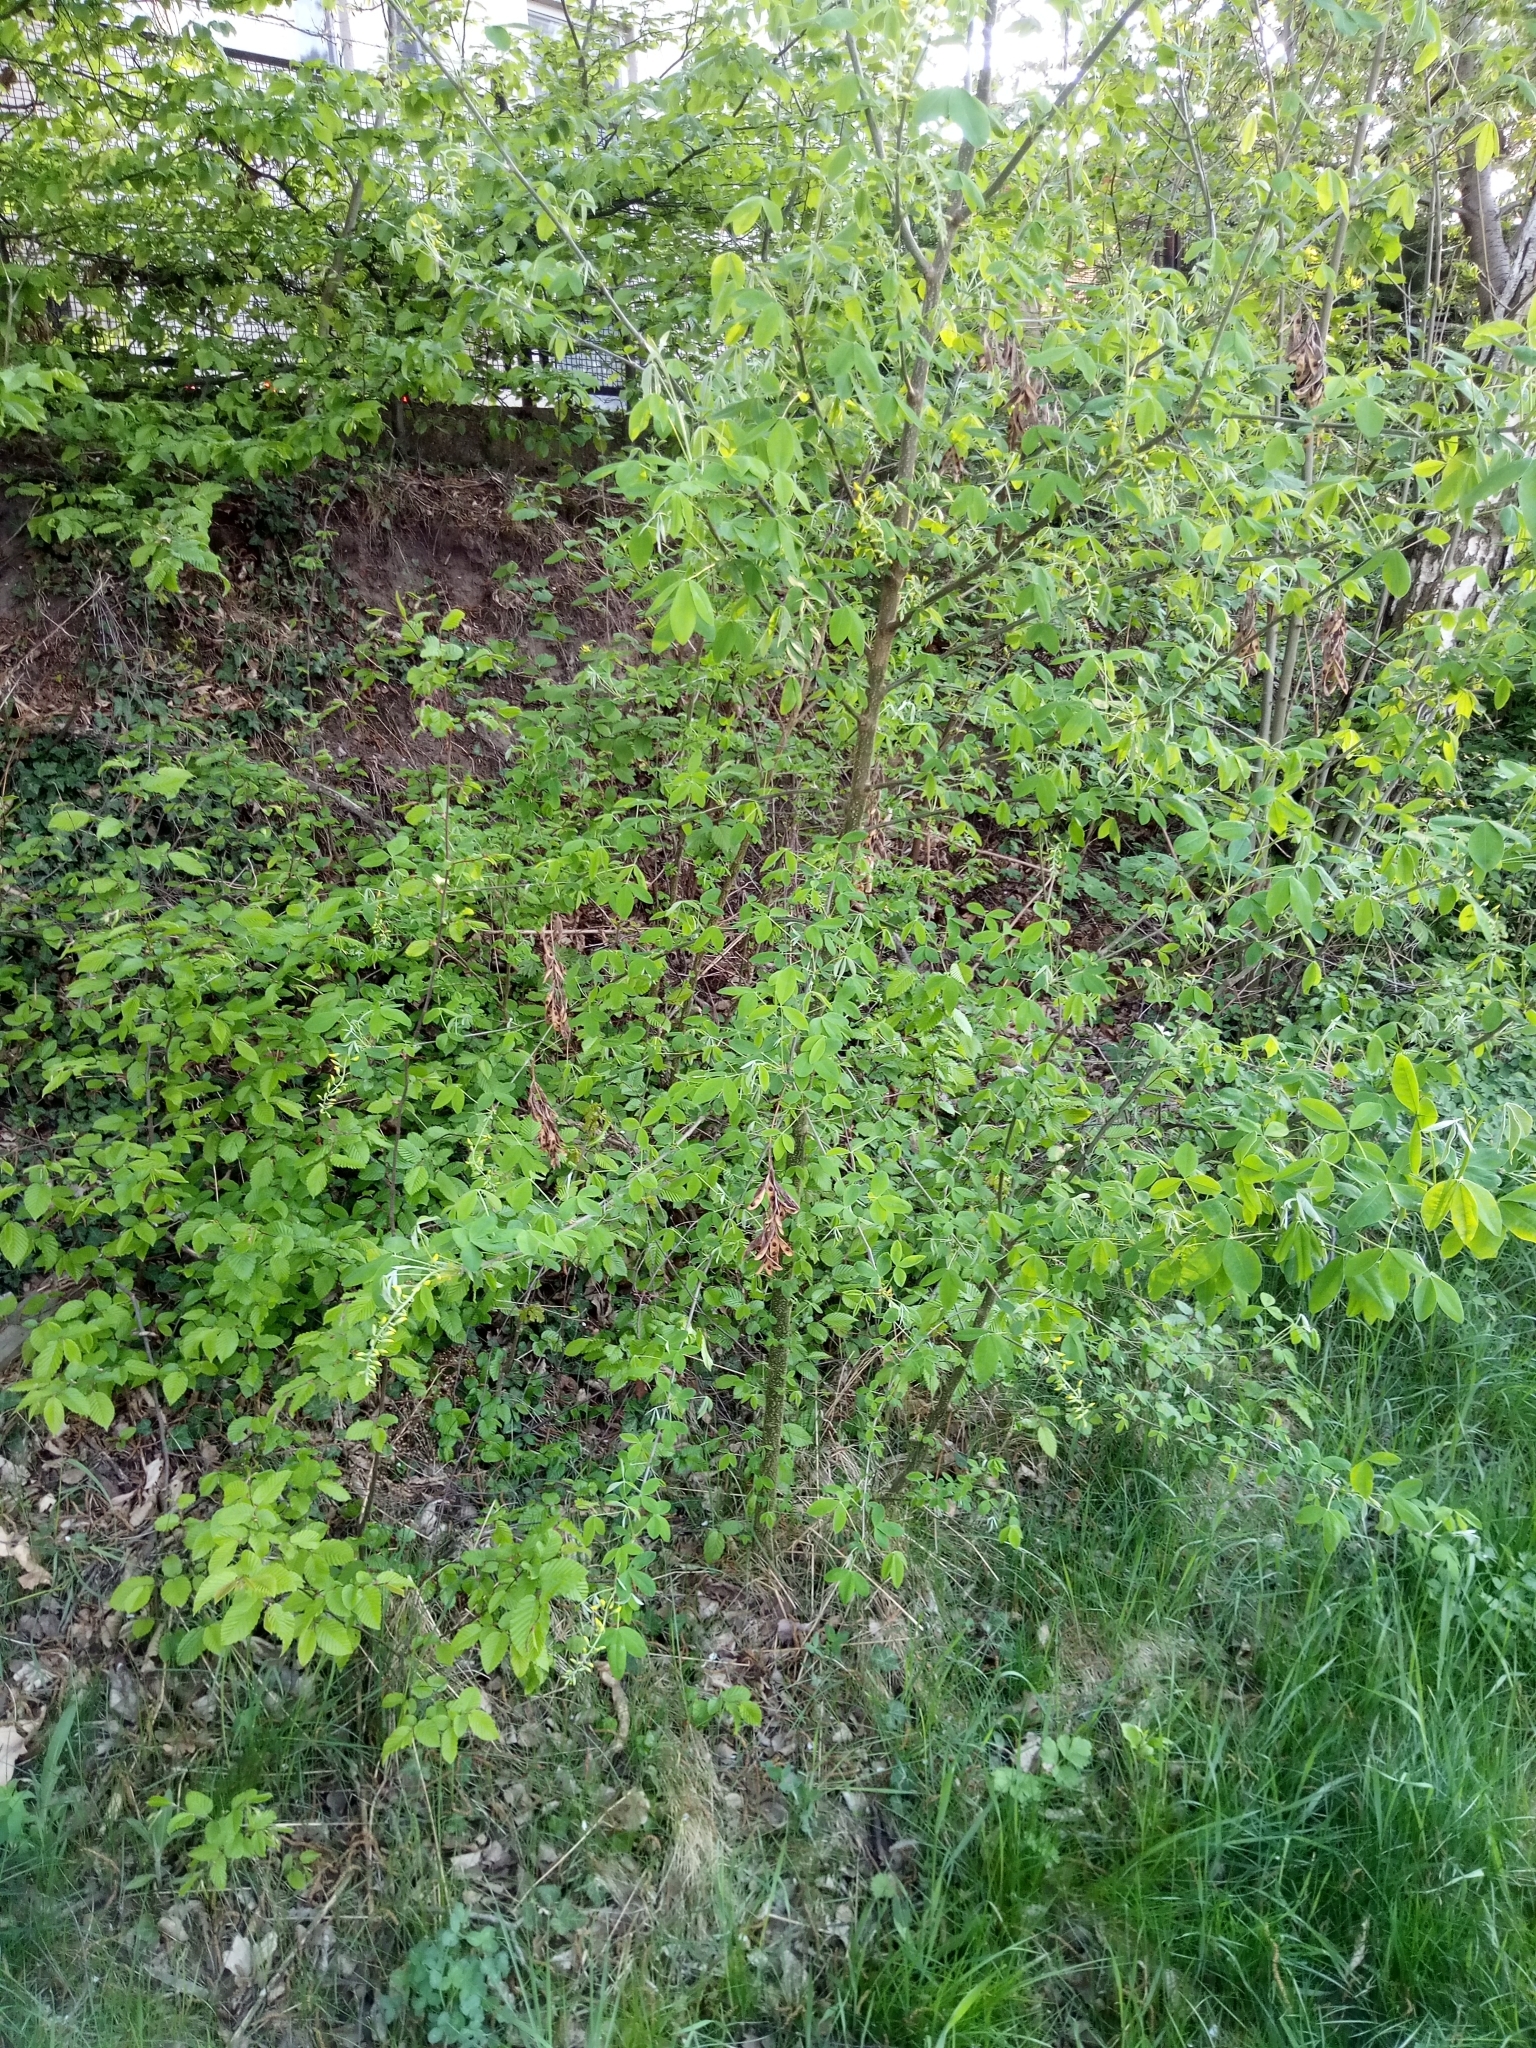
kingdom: Plantae
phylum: Tracheophyta
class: Magnoliopsida
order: Fabales
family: Fabaceae
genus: Laburnum
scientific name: Laburnum anagyroides
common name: Laburnum
